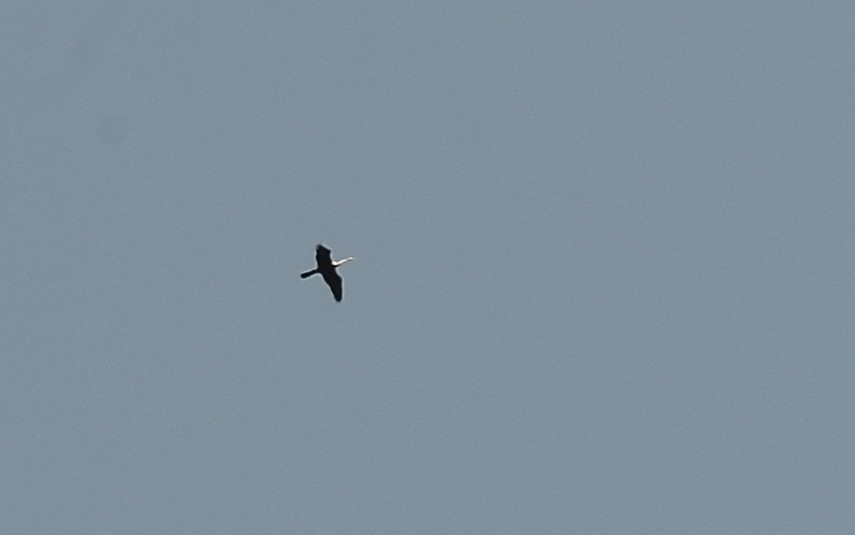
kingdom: Animalia
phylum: Chordata
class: Aves
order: Suliformes
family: Anhingidae
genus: Anhinga
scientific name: Anhinga melanogaster
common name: Oriental darter
